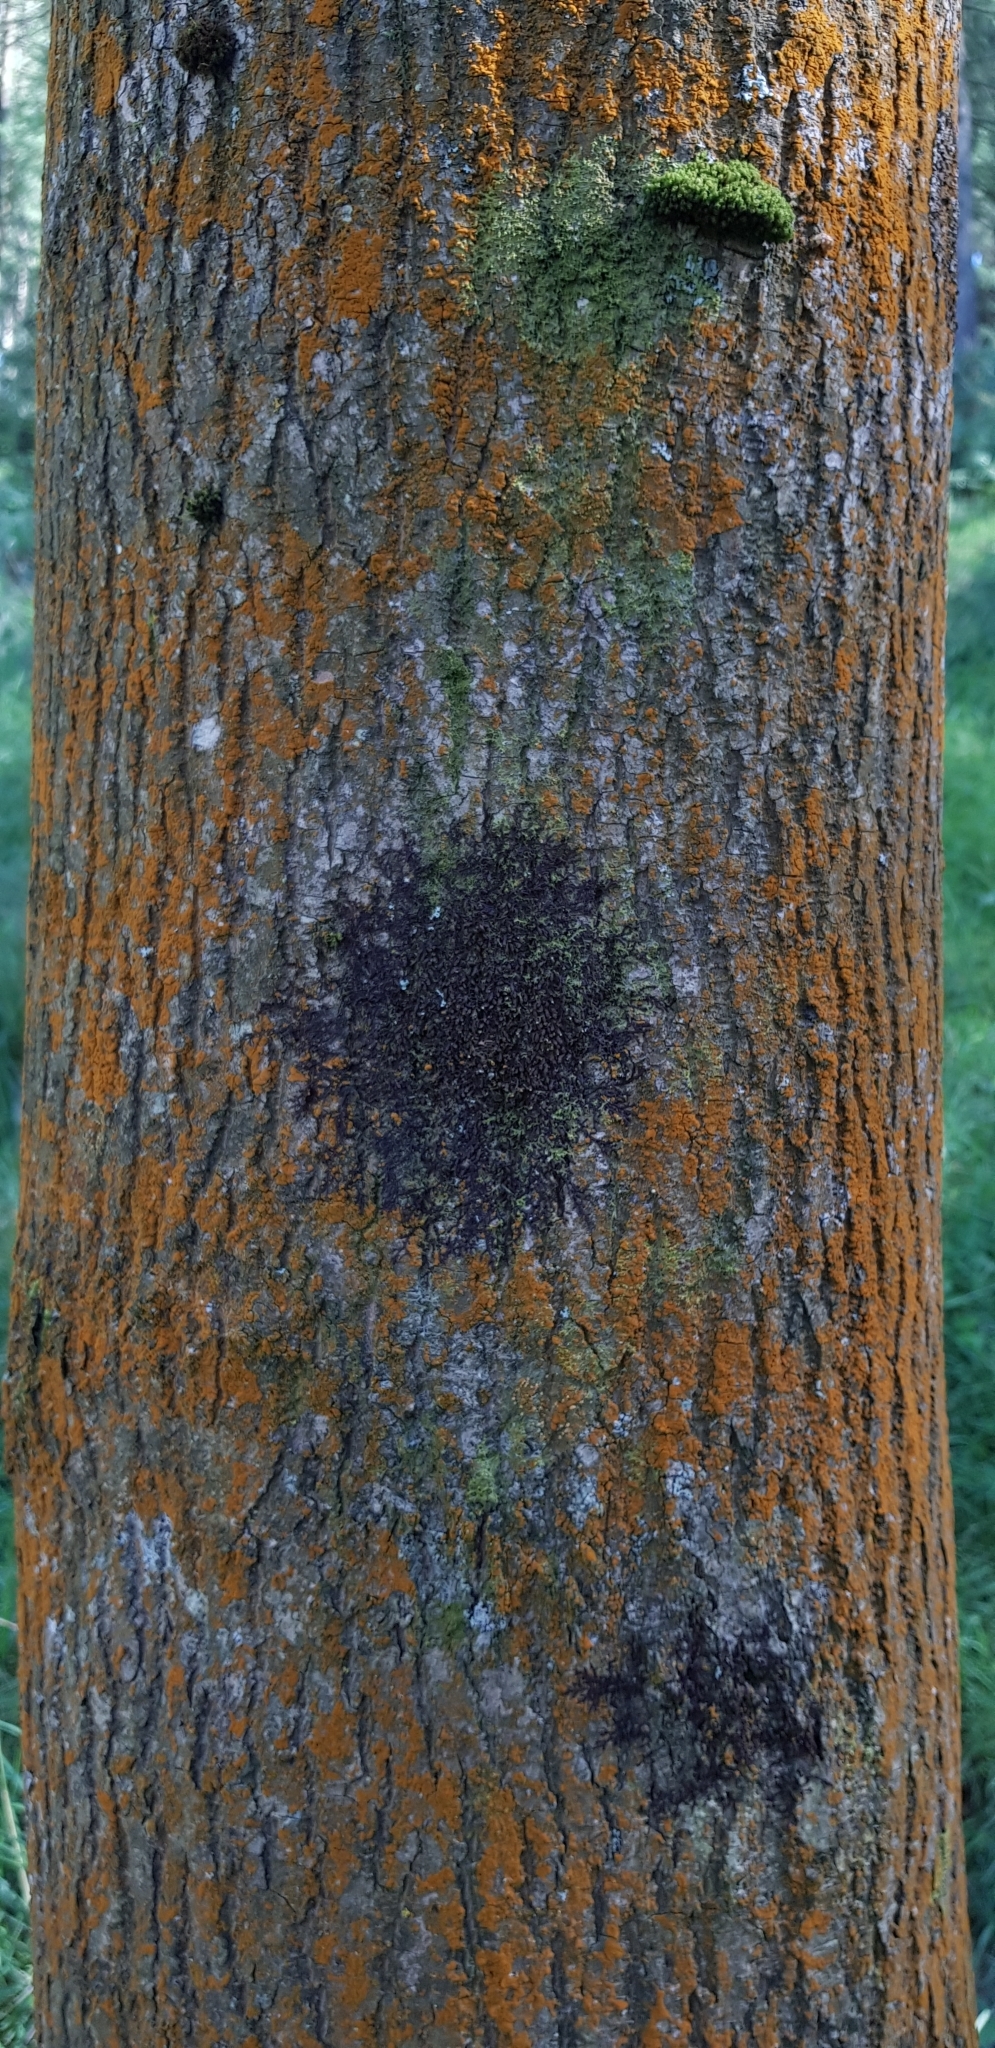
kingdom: Plantae
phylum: Marchantiophyta
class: Jungermanniopsida
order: Metzgeriales
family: Metzgeriaceae
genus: Metzgeria
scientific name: Metzgeria violacea
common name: Blueish veilwort
